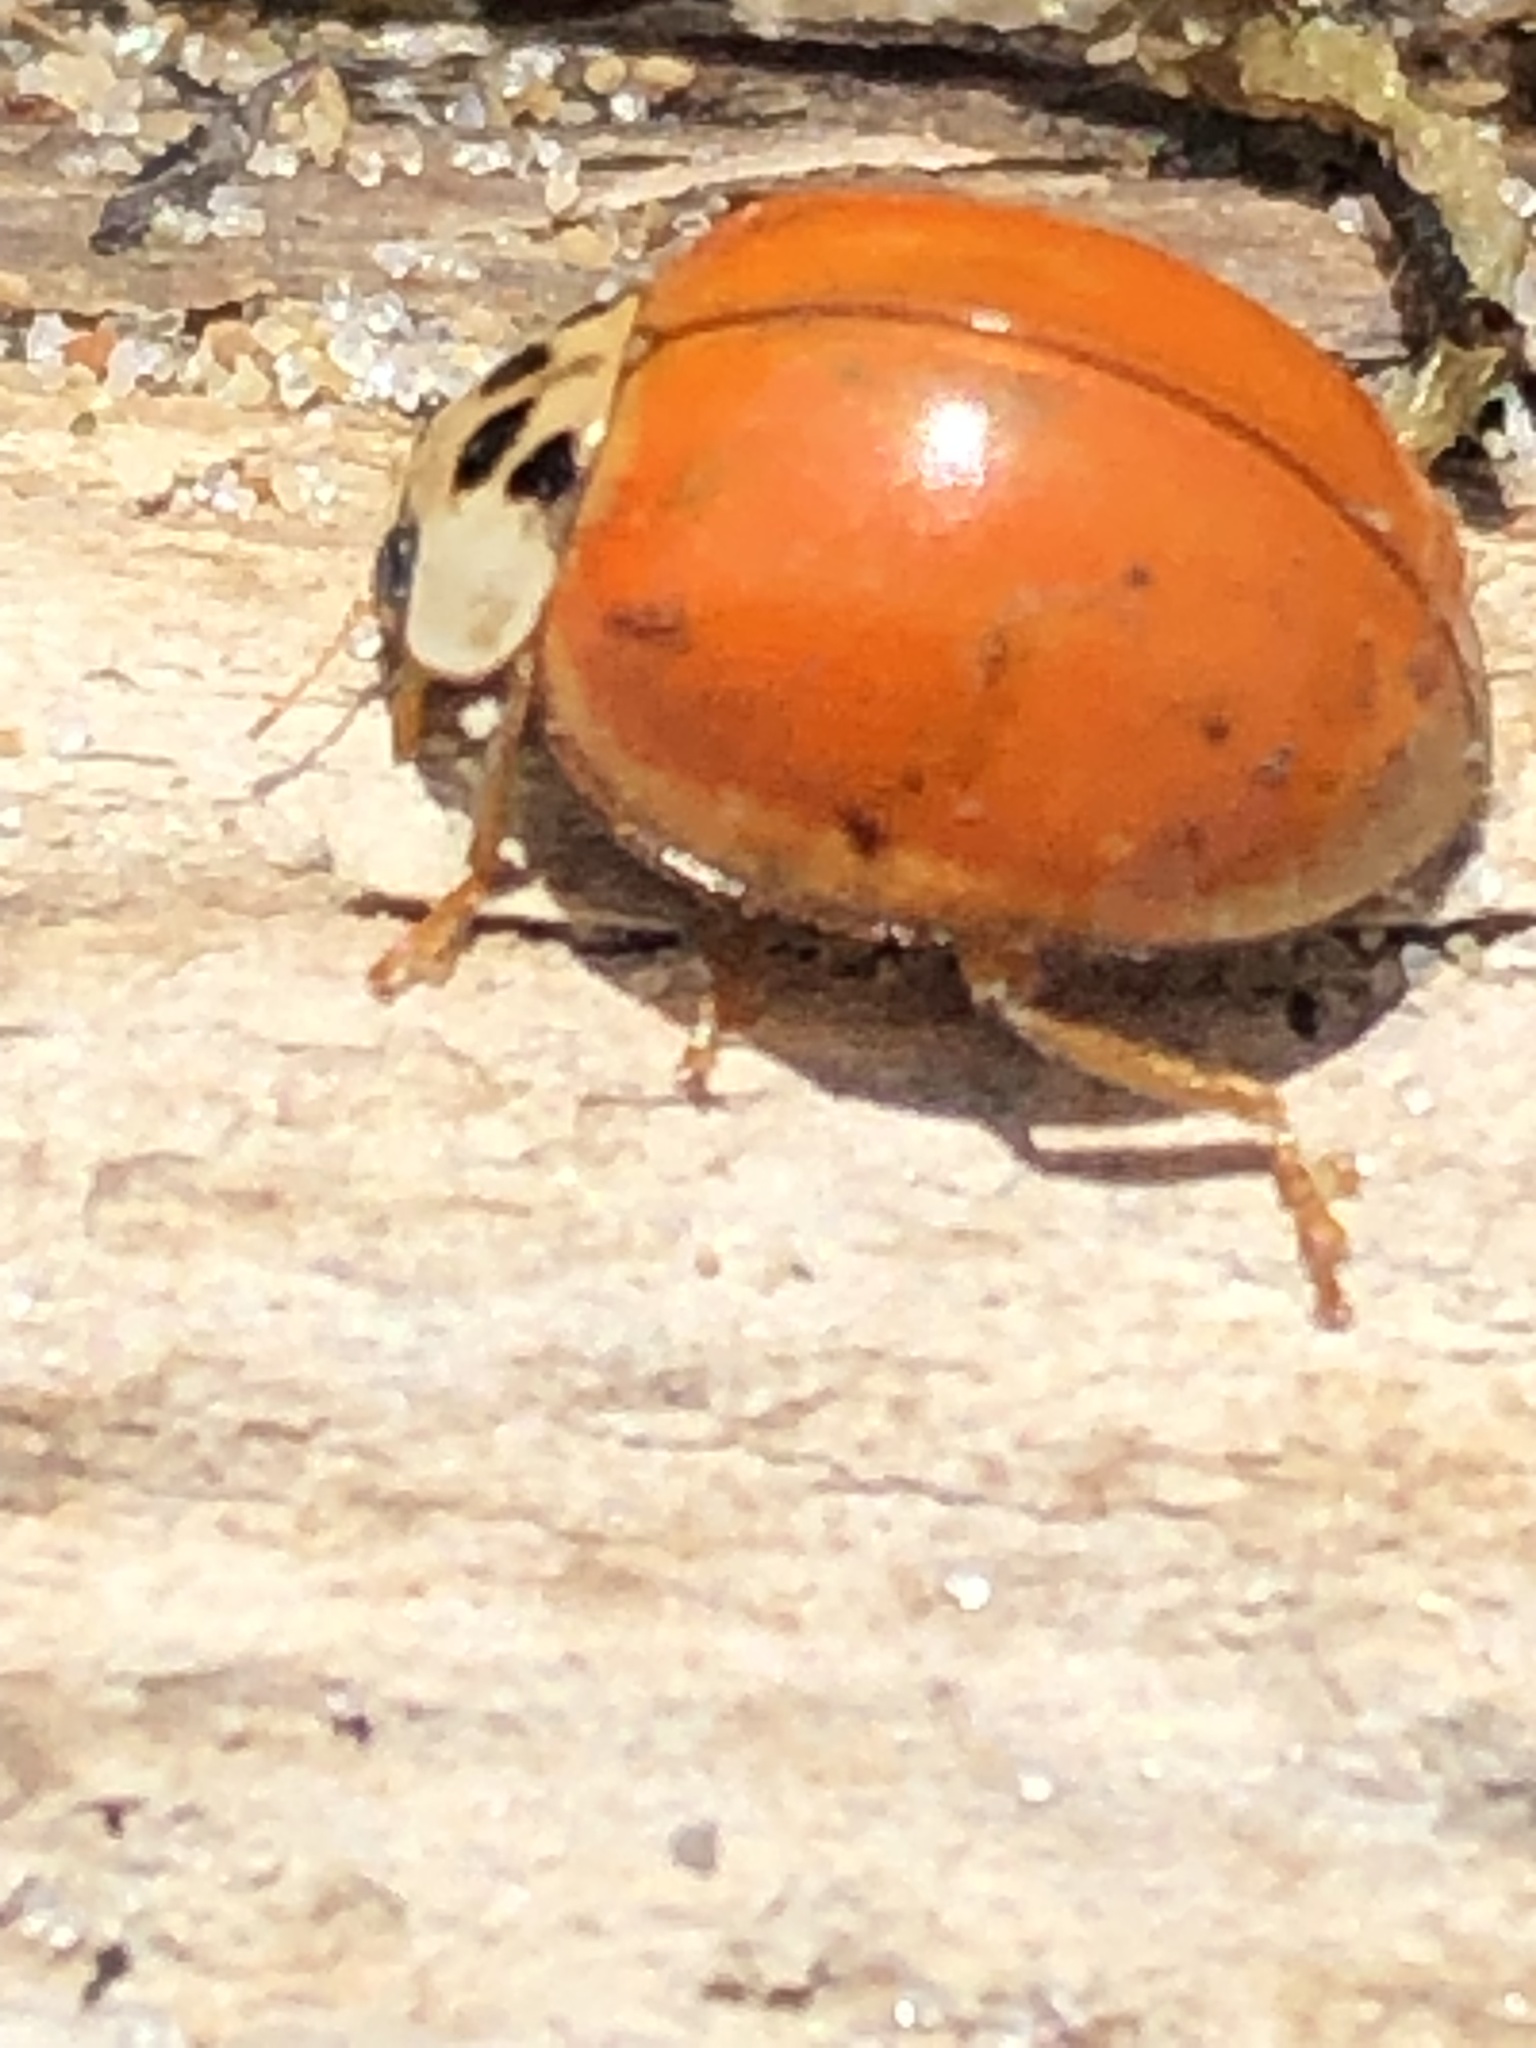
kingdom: Animalia
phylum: Arthropoda
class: Insecta
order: Coleoptera
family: Coccinellidae
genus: Harmonia
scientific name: Harmonia axyridis
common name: Harlequin ladybird
